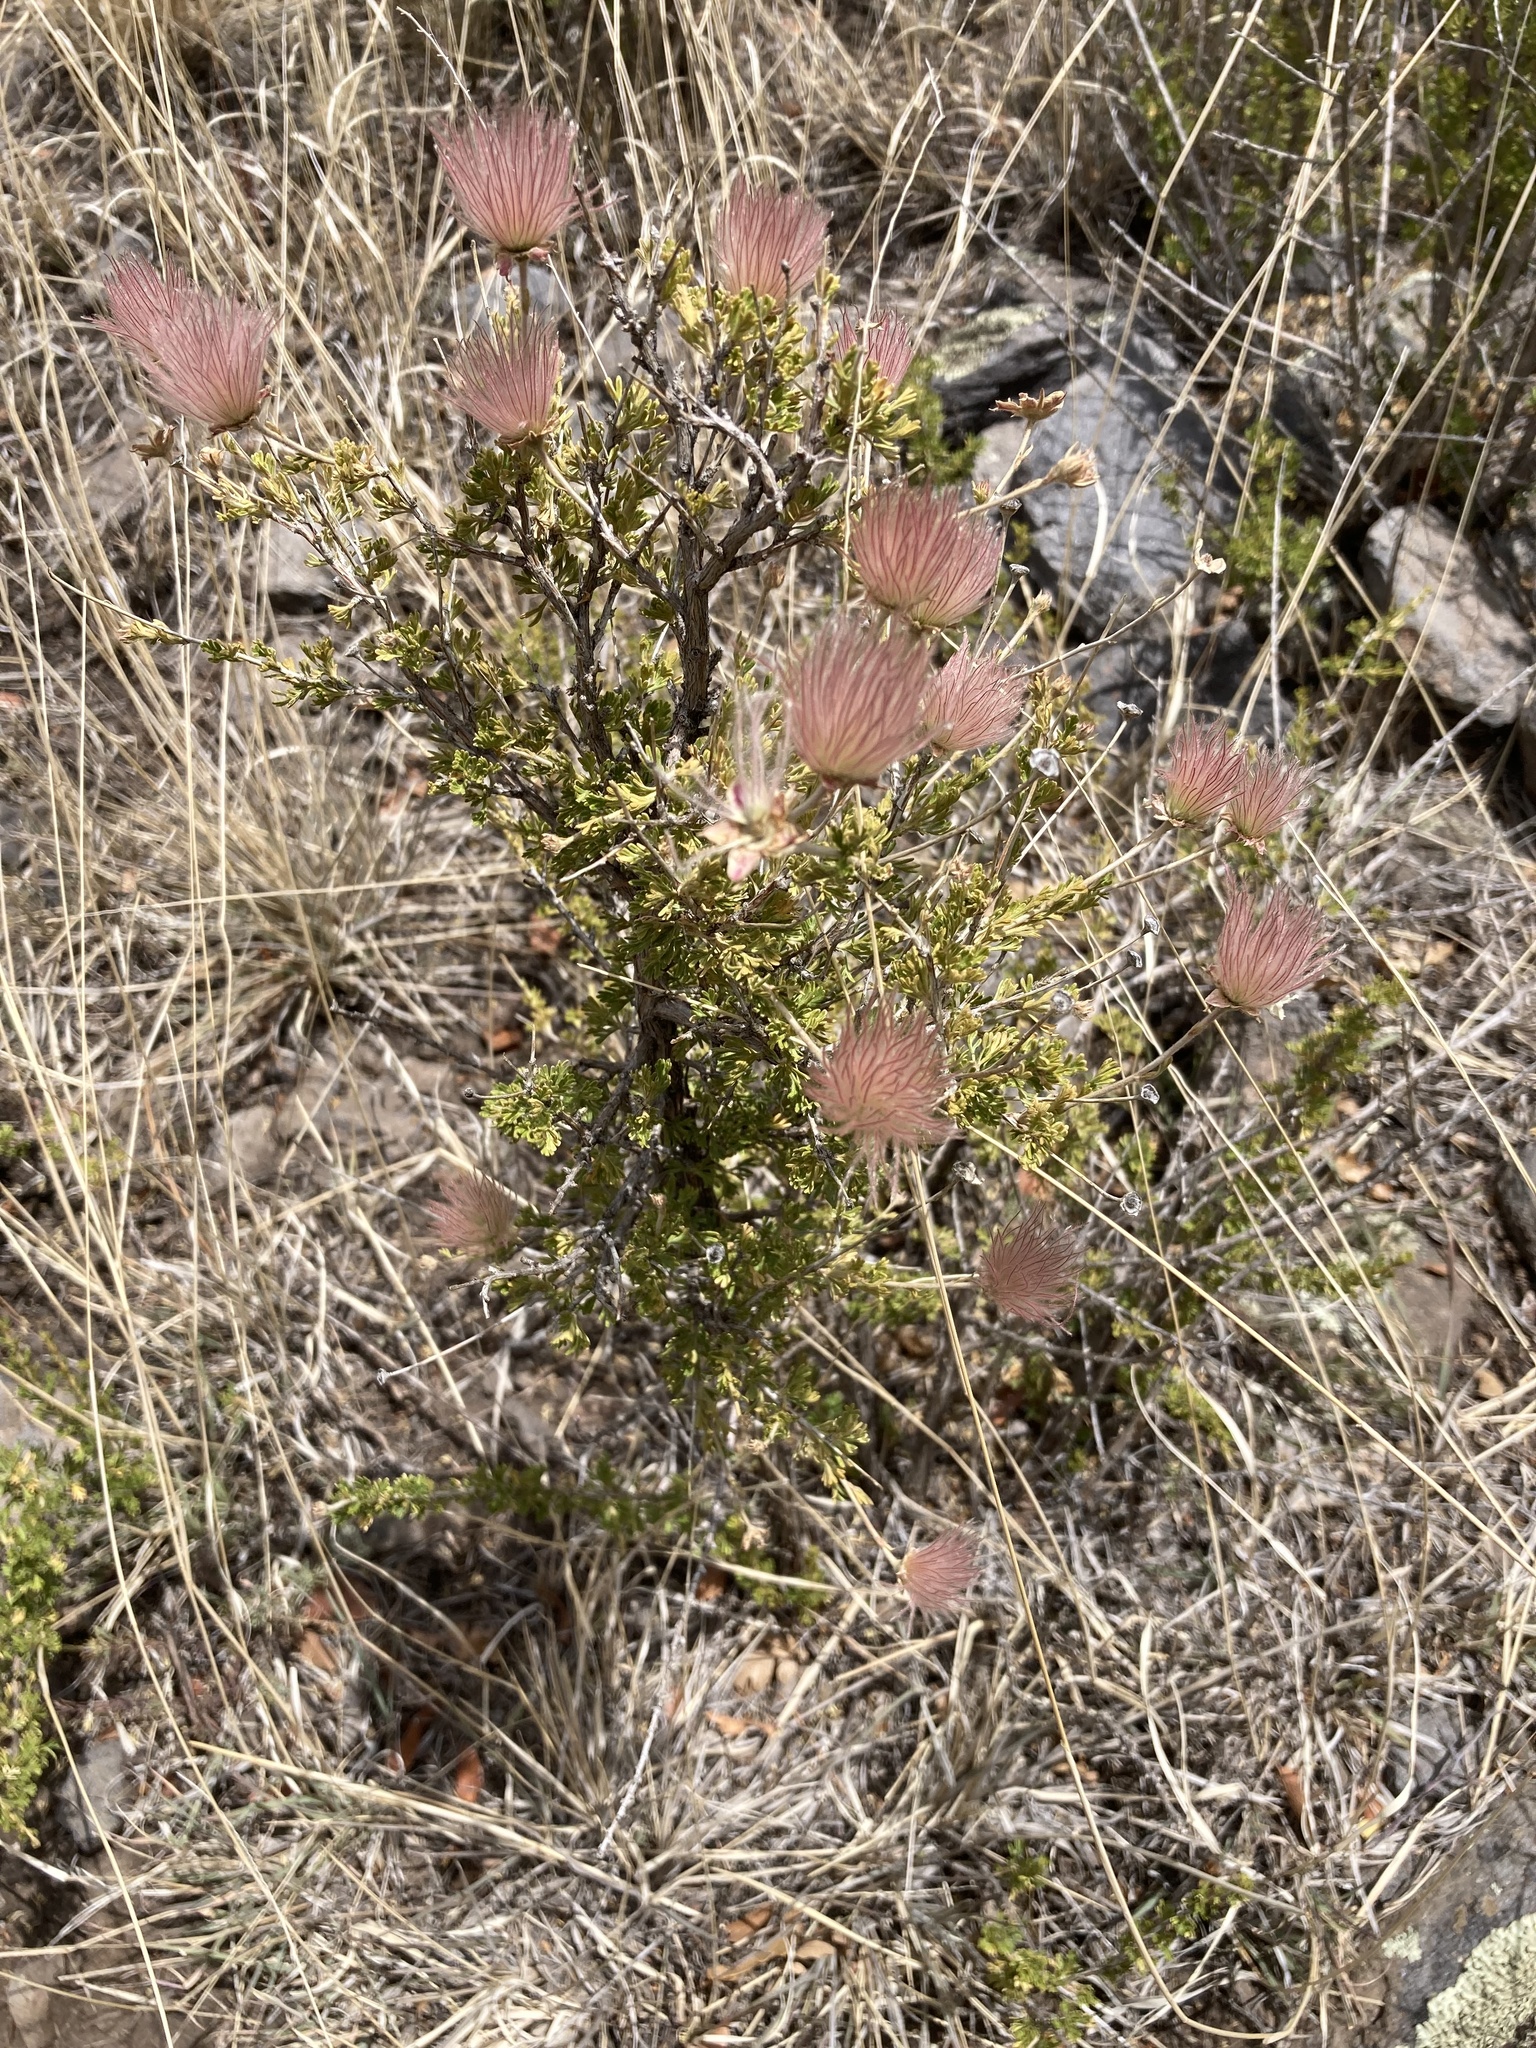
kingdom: Plantae
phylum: Tracheophyta
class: Magnoliopsida
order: Rosales
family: Rosaceae
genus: Fallugia
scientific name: Fallugia paradoxa
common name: Apache-plume
